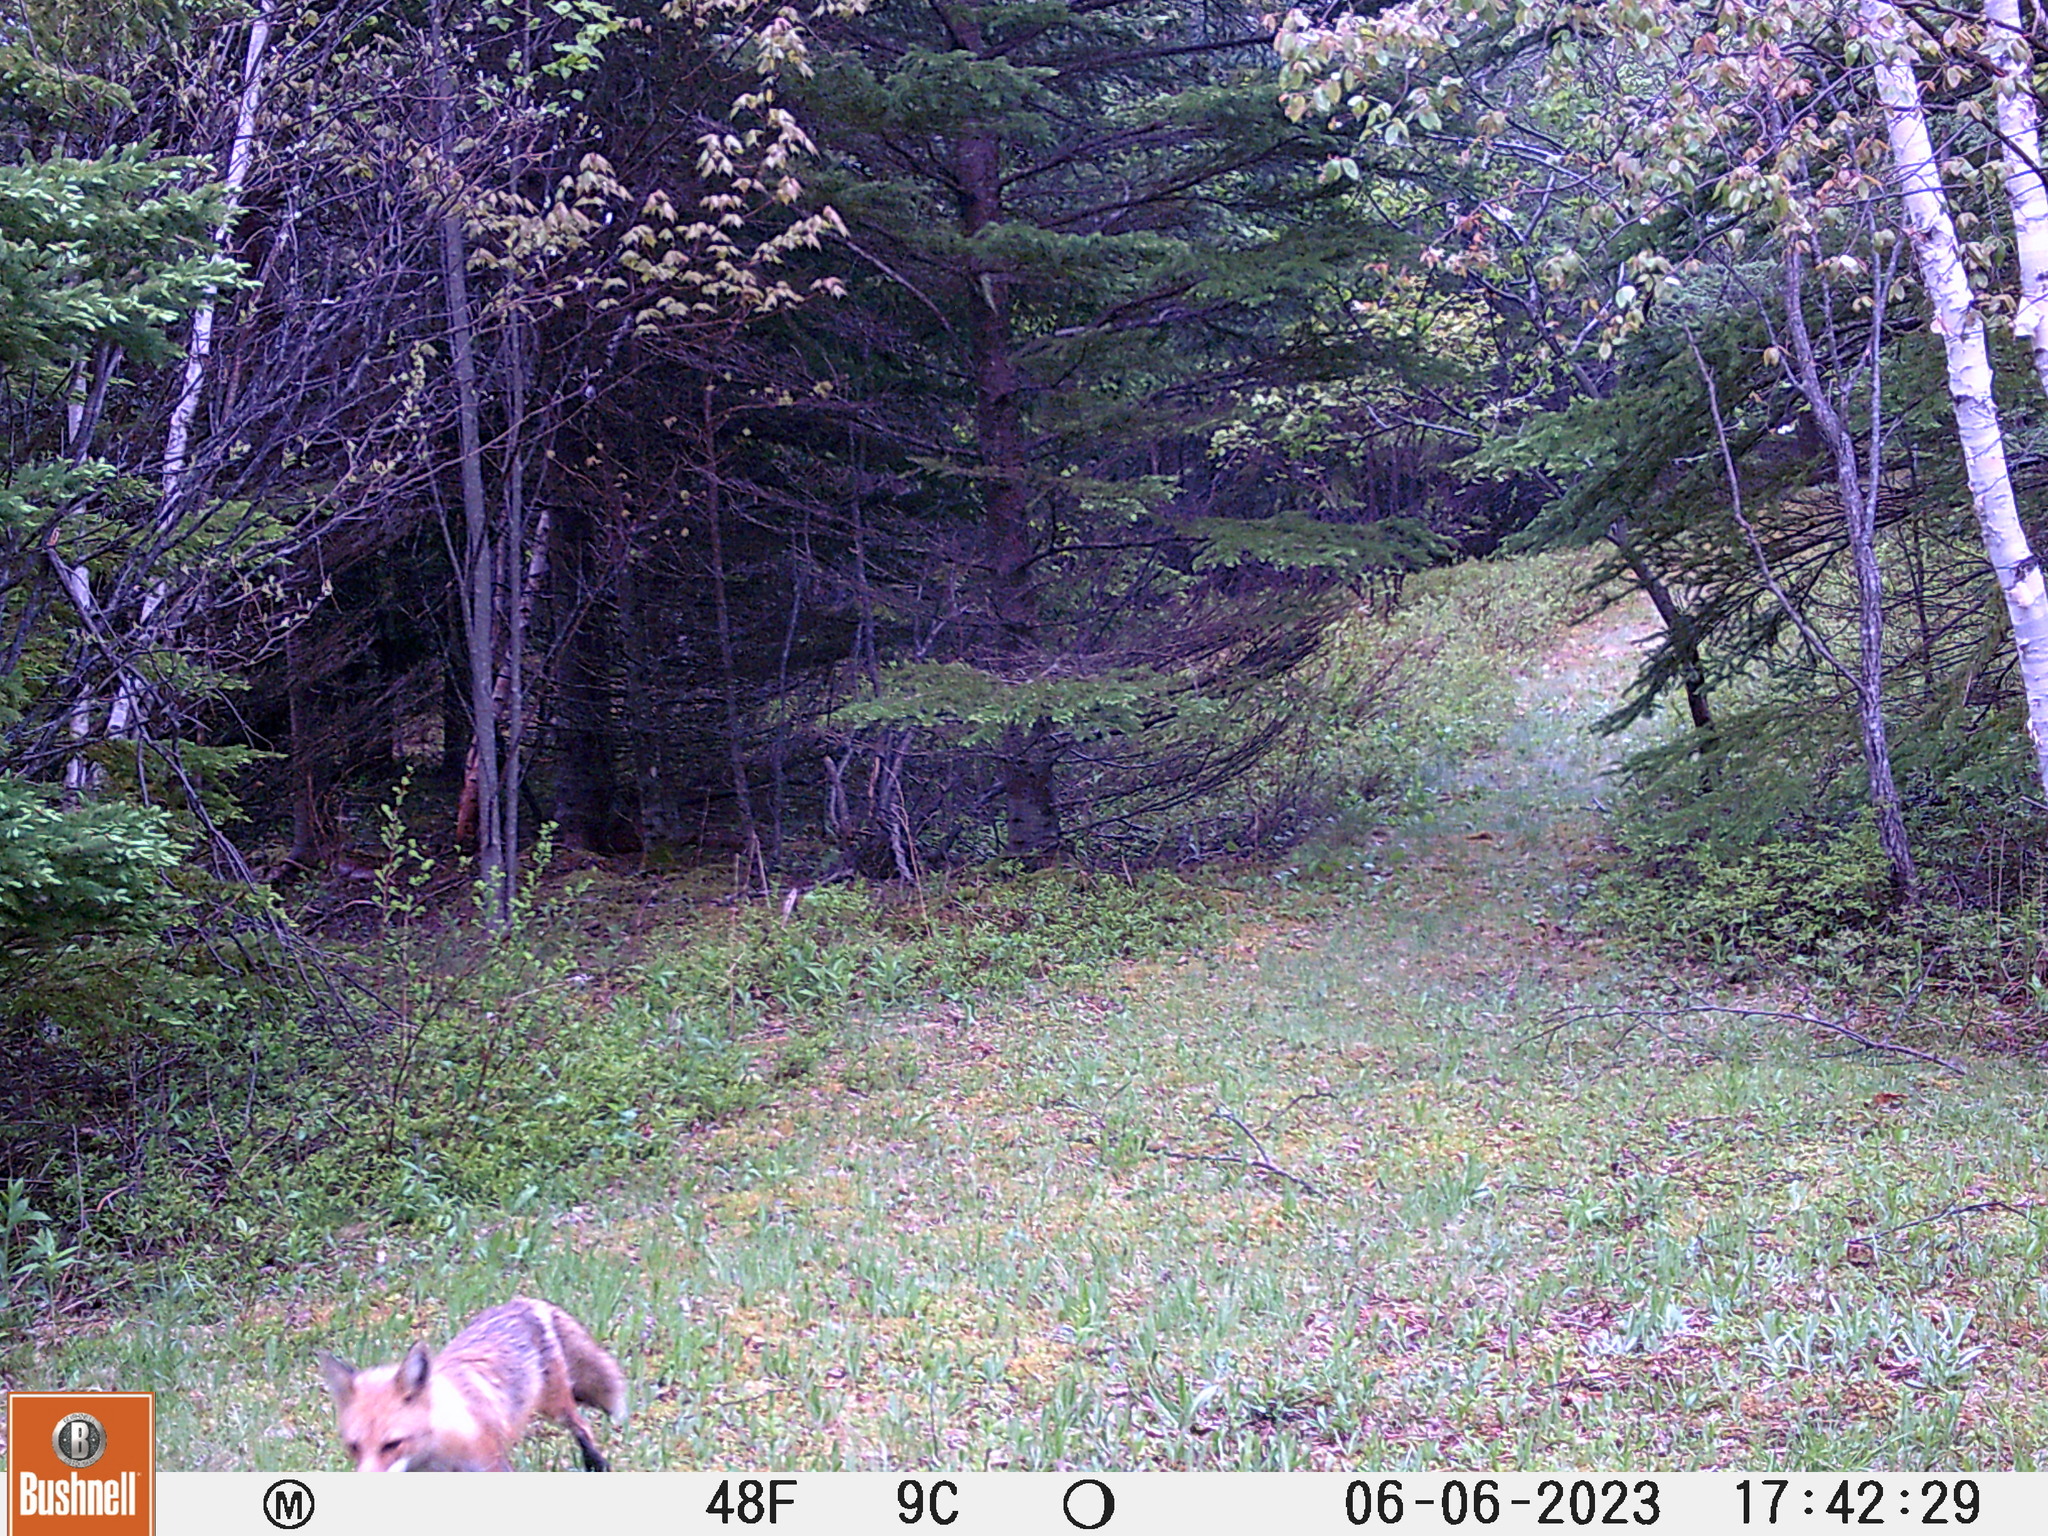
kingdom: Animalia
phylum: Chordata
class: Mammalia
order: Carnivora
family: Canidae
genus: Vulpes
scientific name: Vulpes vulpes
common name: Red fox
